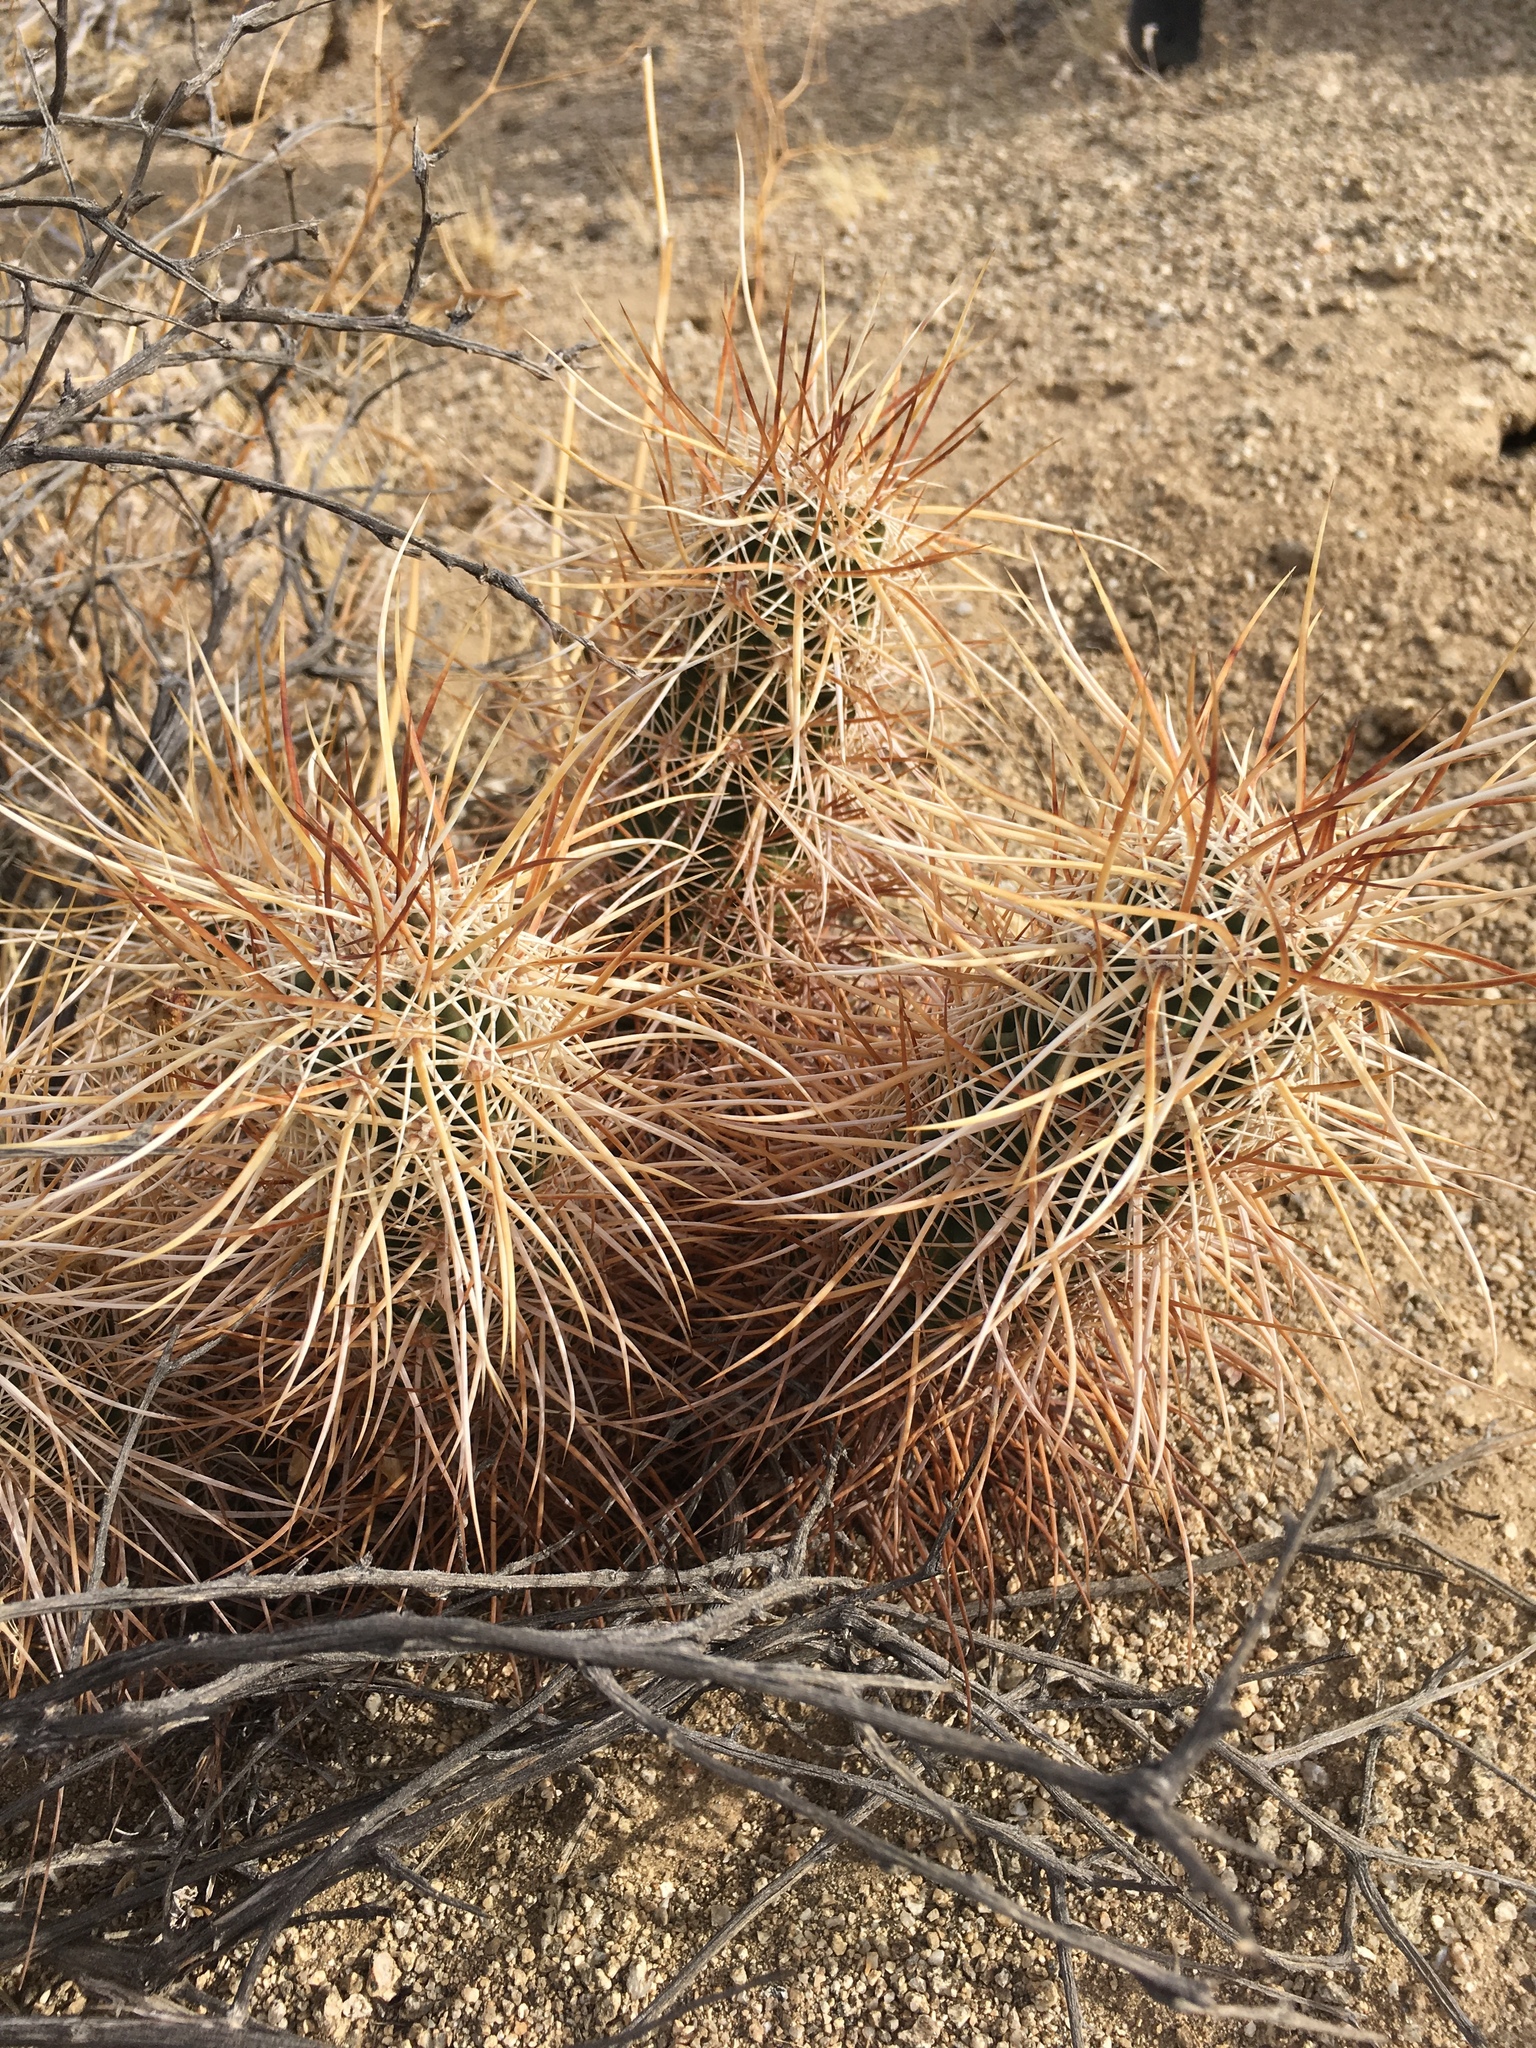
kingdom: Plantae
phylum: Tracheophyta
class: Magnoliopsida
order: Caryophyllales
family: Cactaceae
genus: Echinocereus
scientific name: Echinocereus engelmannii
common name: Engelmann's hedgehog cactus
